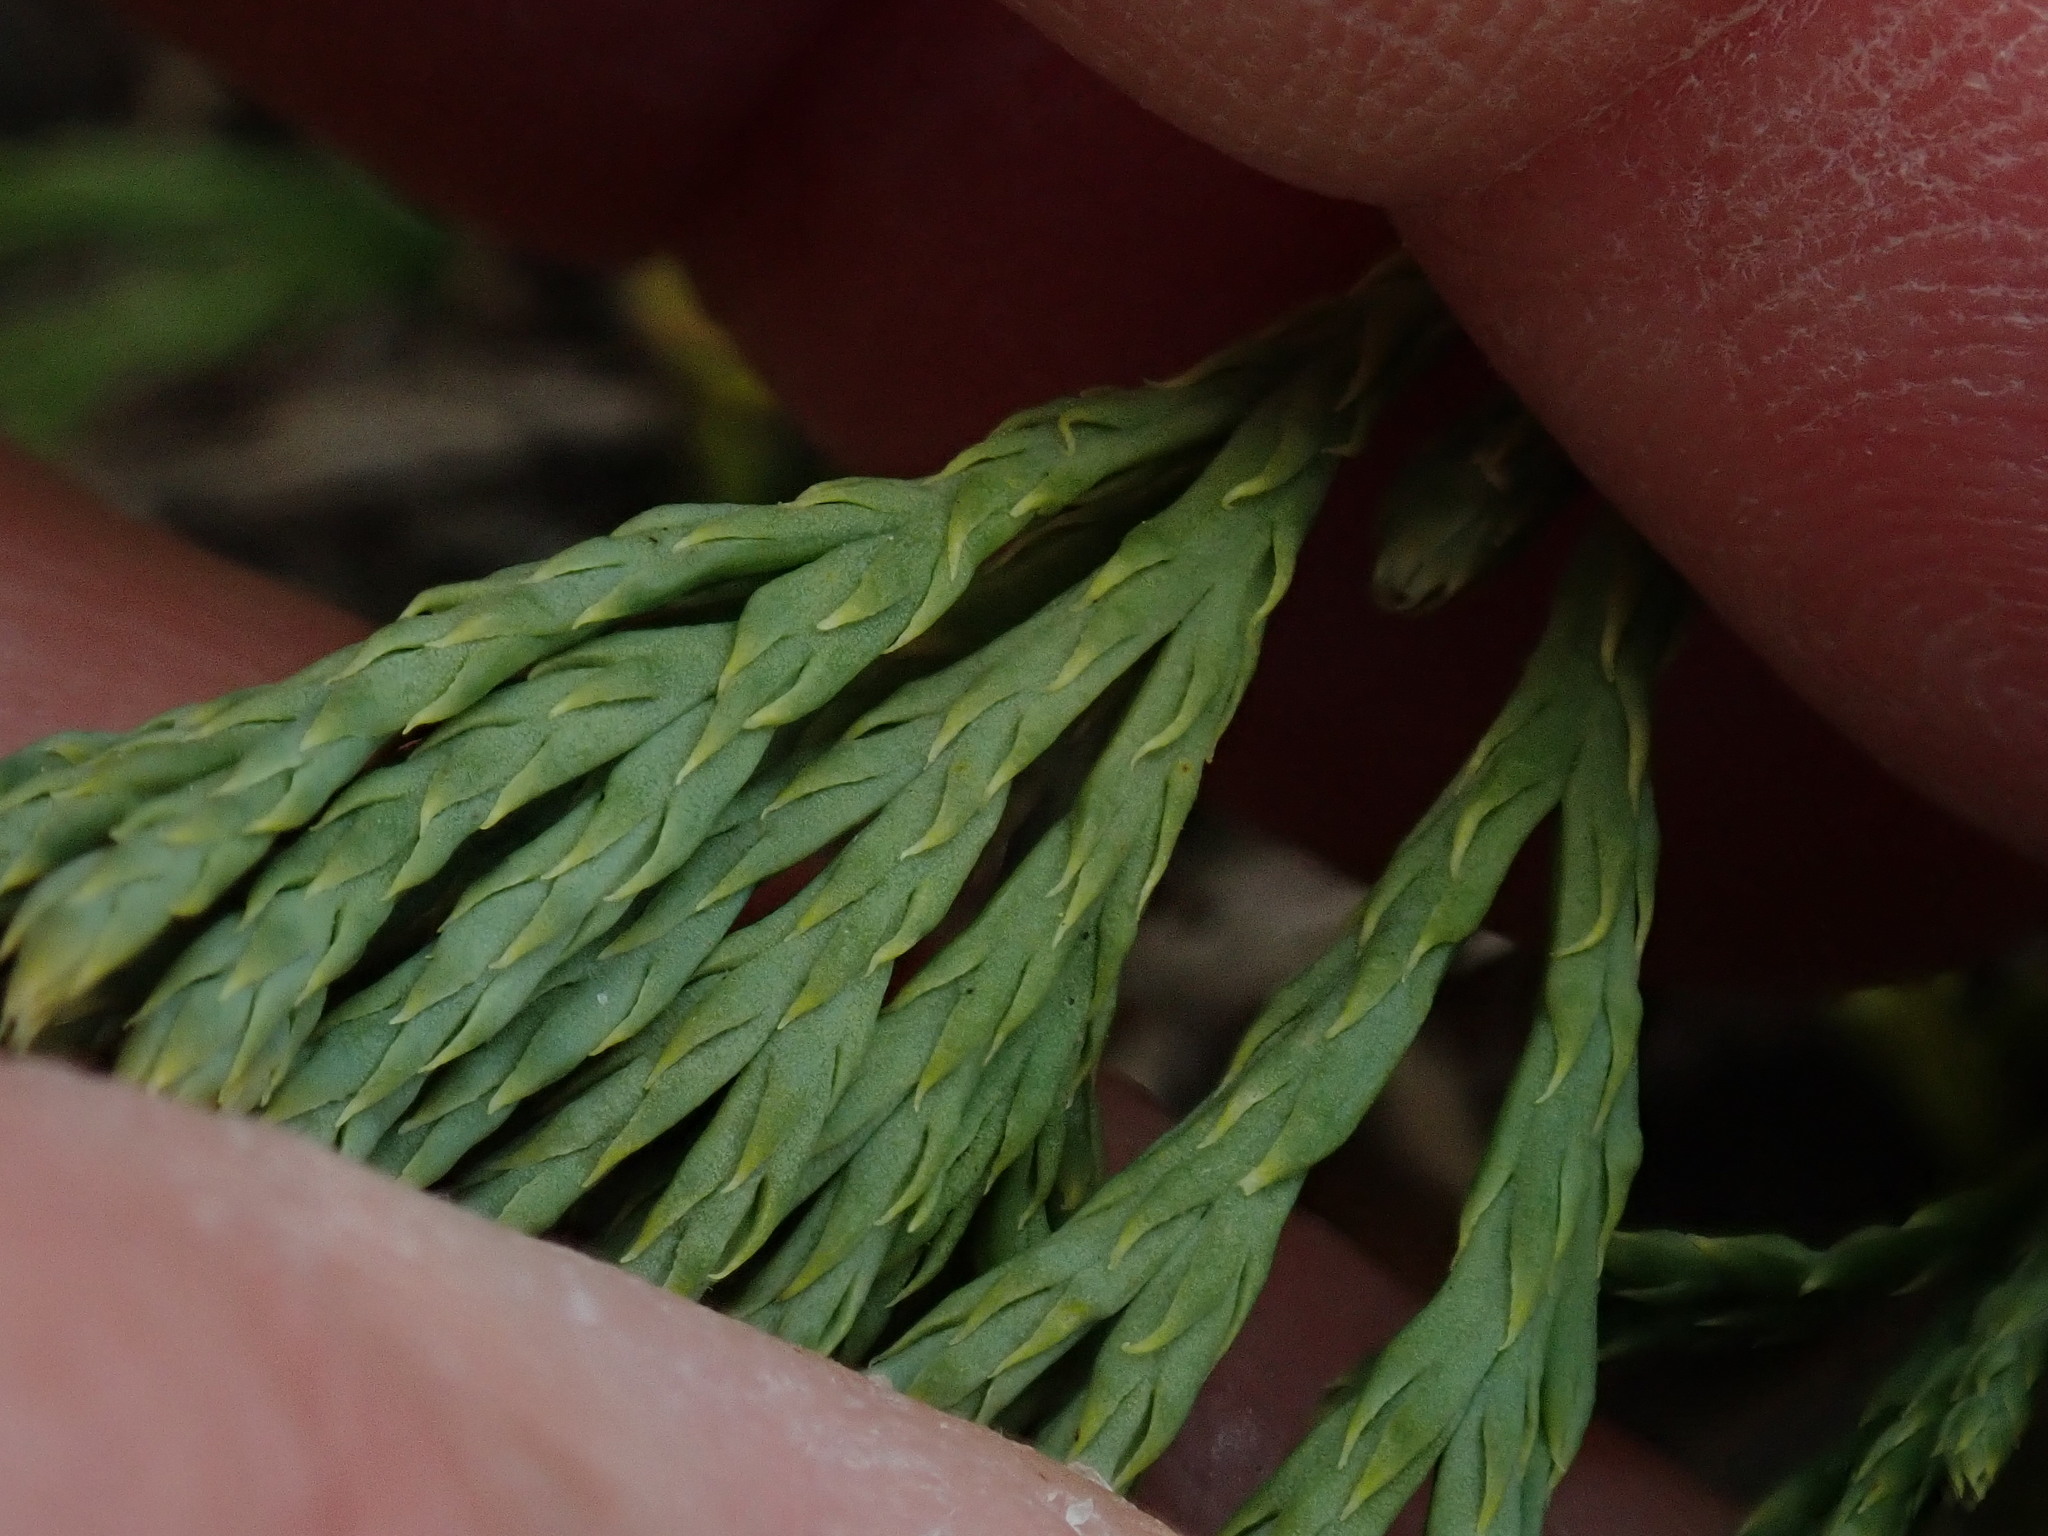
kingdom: Plantae
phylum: Tracheophyta
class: Lycopodiopsida
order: Lycopodiales
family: Lycopodiaceae
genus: Diphasiastrum
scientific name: Diphasiastrum tristachyum
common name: Blue ground-cedar
